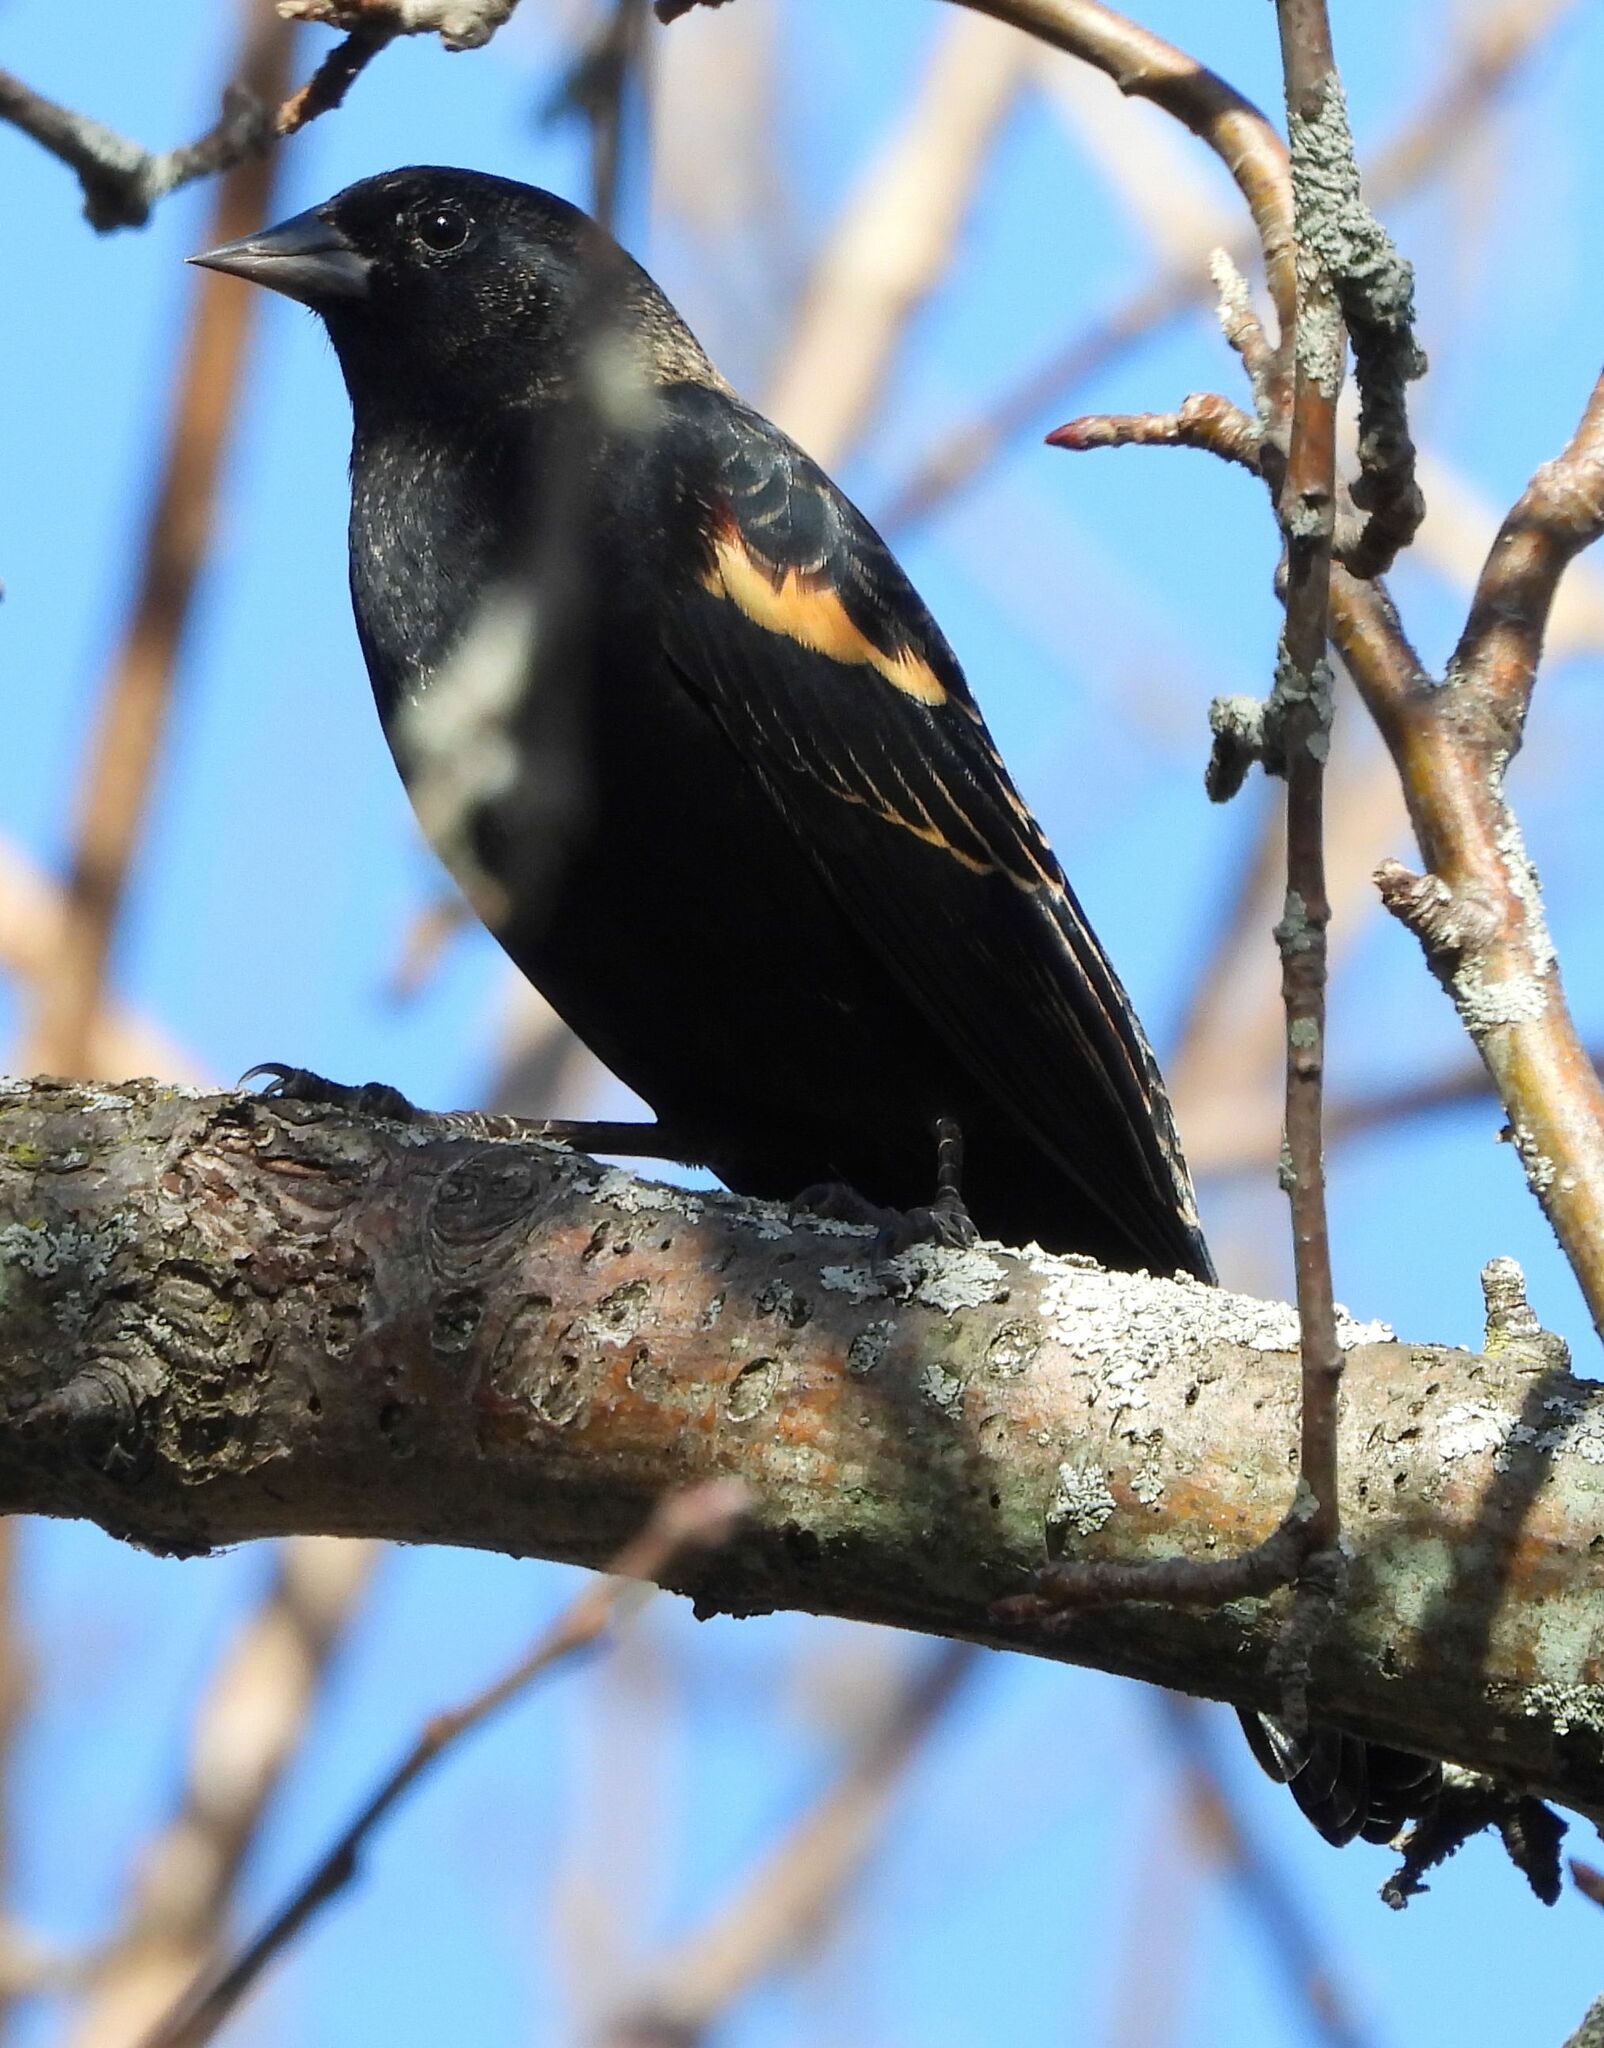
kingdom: Animalia
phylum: Chordata
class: Aves
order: Passeriformes
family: Icteridae
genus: Agelaius
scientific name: Agelaius phoeniceus
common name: Red-winged blackbird
